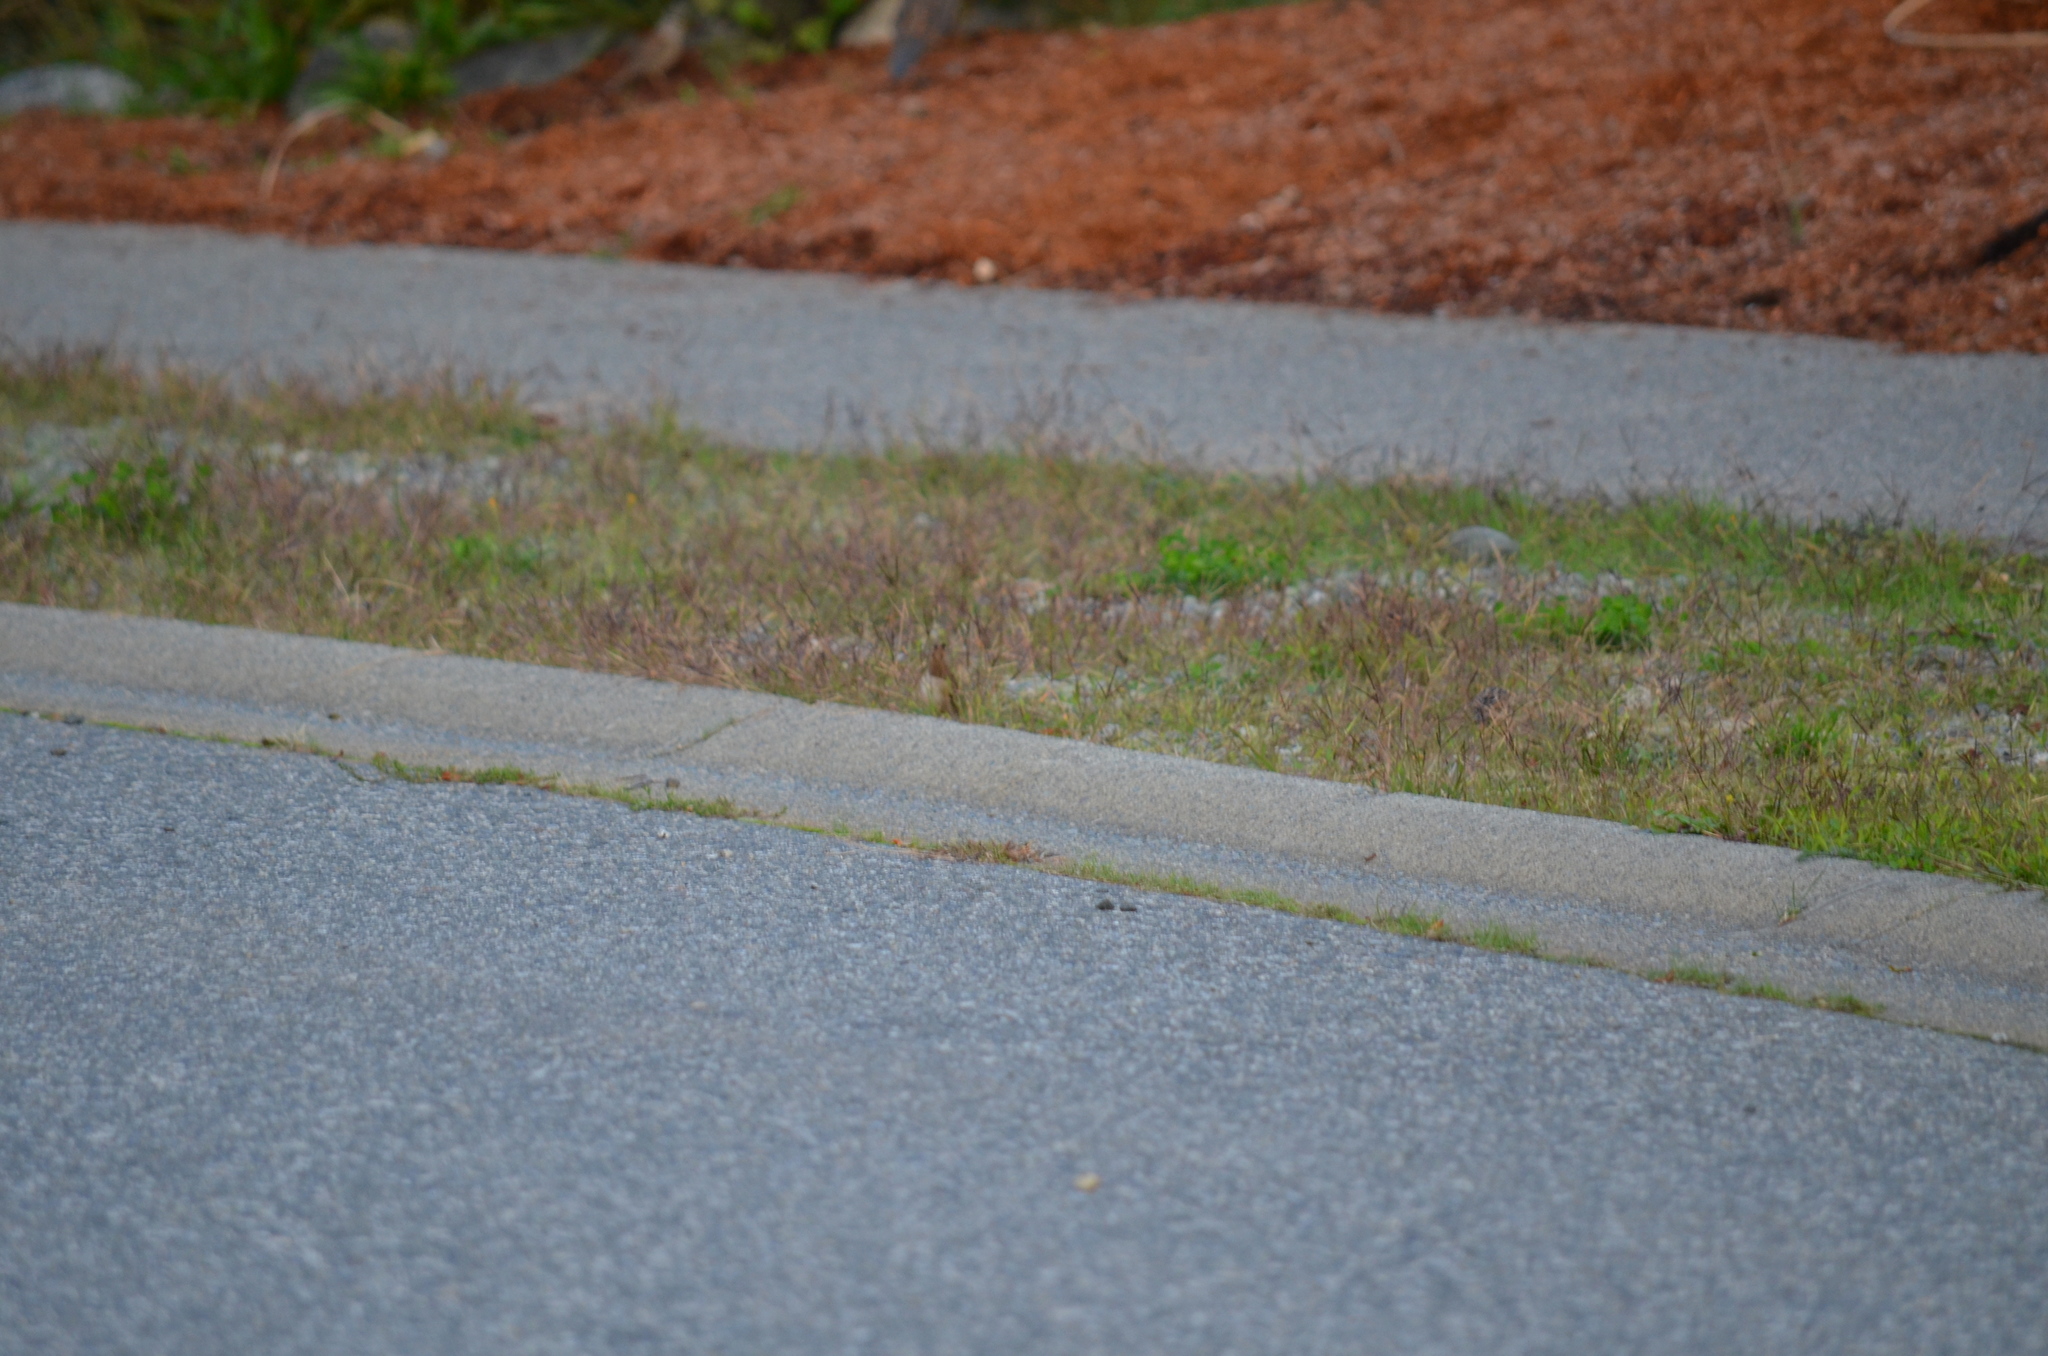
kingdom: Animalia
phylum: Chordata
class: Aves
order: Passeriformes
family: Passerellidae
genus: Zonotrichia
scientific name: Zonotrichia leucophrys
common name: White-crowned sparrow
